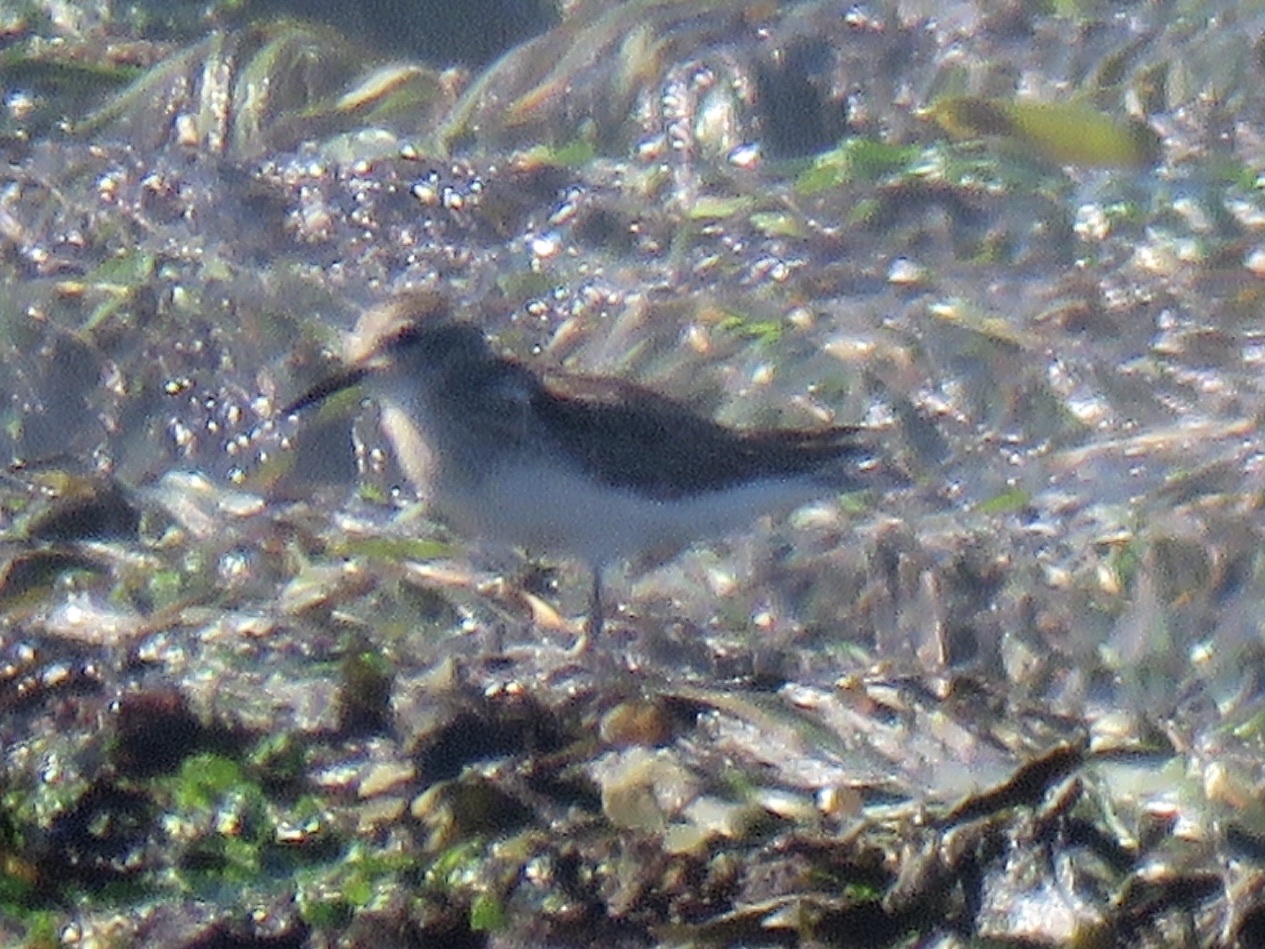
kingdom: Animalia
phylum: Chordata
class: Aves
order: Charadriiformes
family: Scolopacidae
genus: Calidris
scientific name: Calidris minutilla
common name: Least sandpiper
